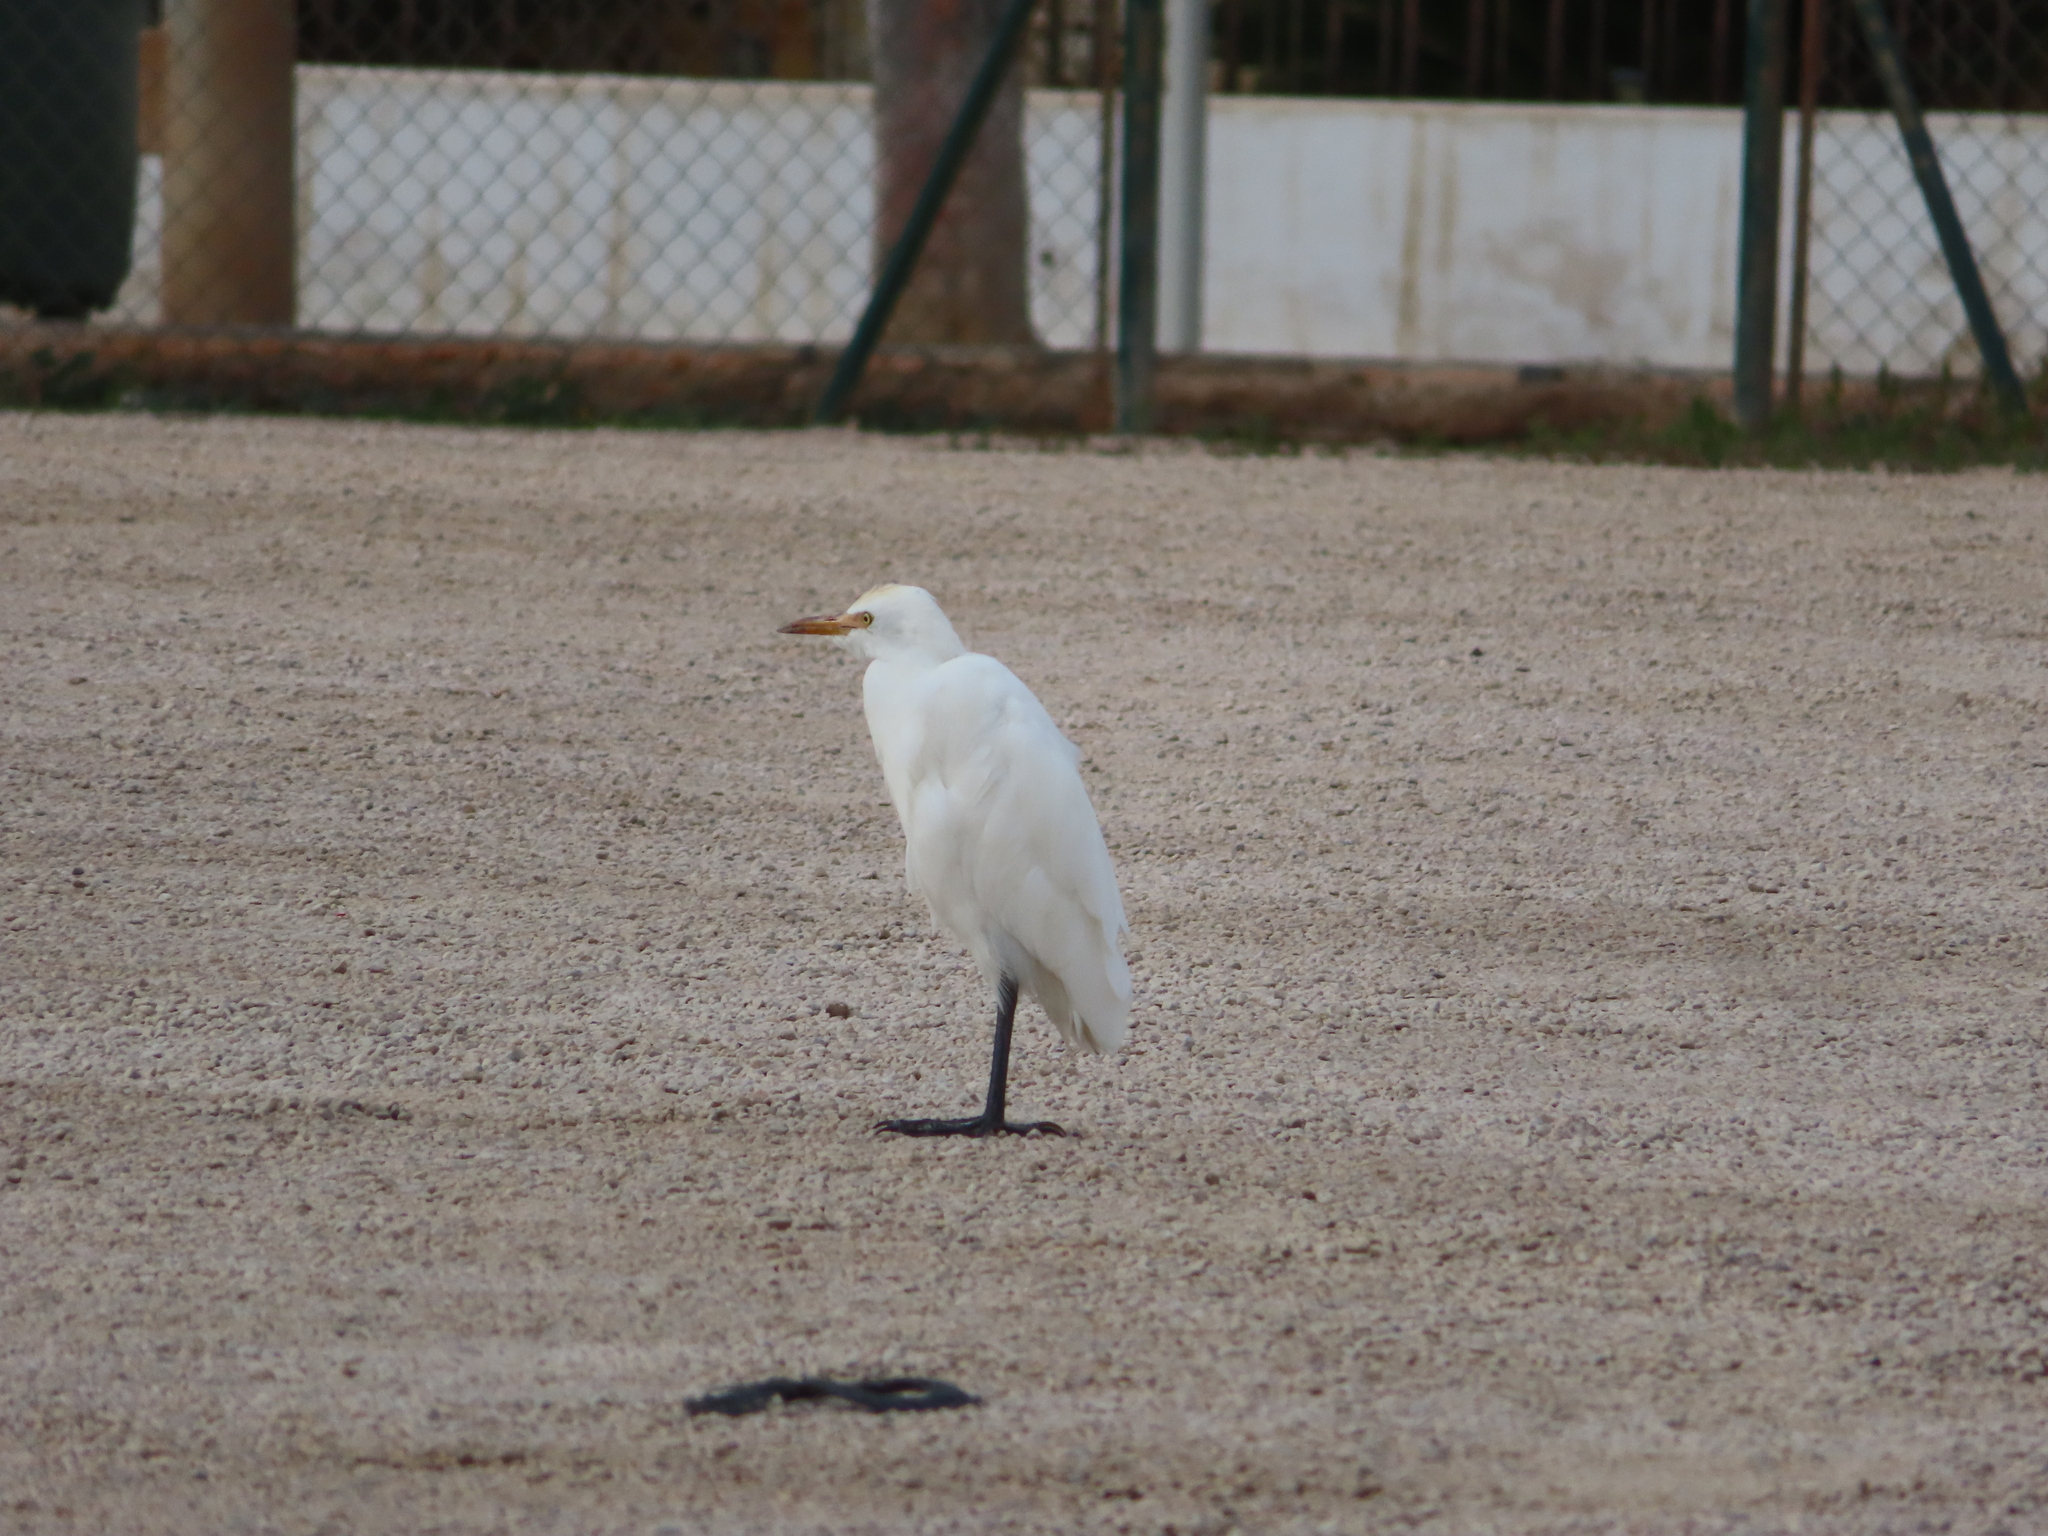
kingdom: Animalia
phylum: Chordata
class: Aves
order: Pelecaniformes
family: Ardeidae
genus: Bubulcus
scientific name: Bubulcus ibis
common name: Cattle egret
